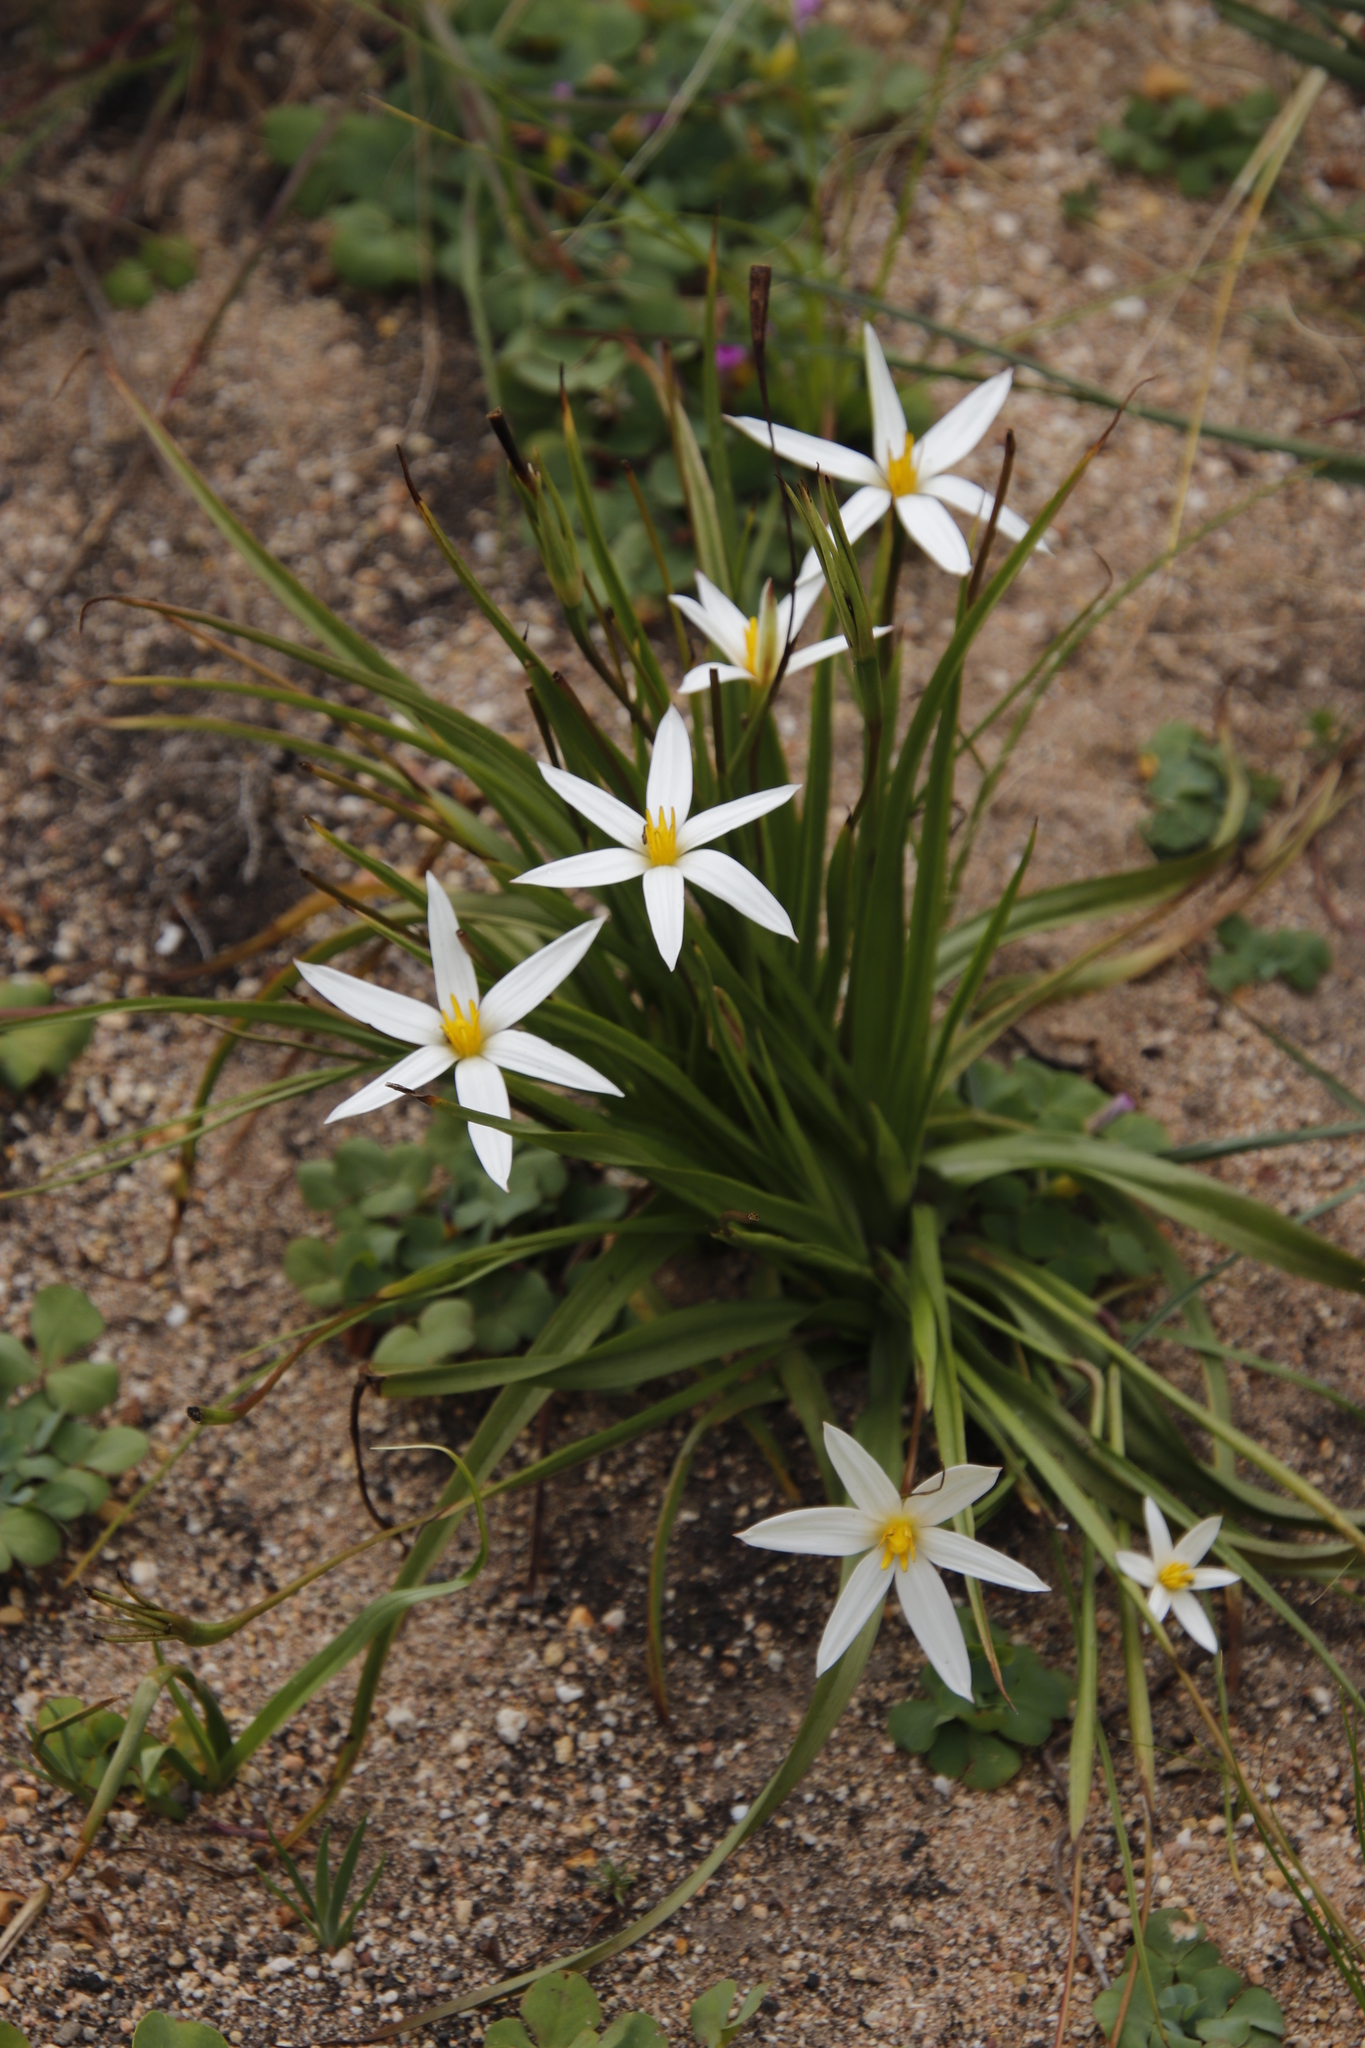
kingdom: Plantae
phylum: Tracheophyta
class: Liliopsida
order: Asparagales
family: Hypoxidaceae
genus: Pauridia
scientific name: Pauridia capensis
